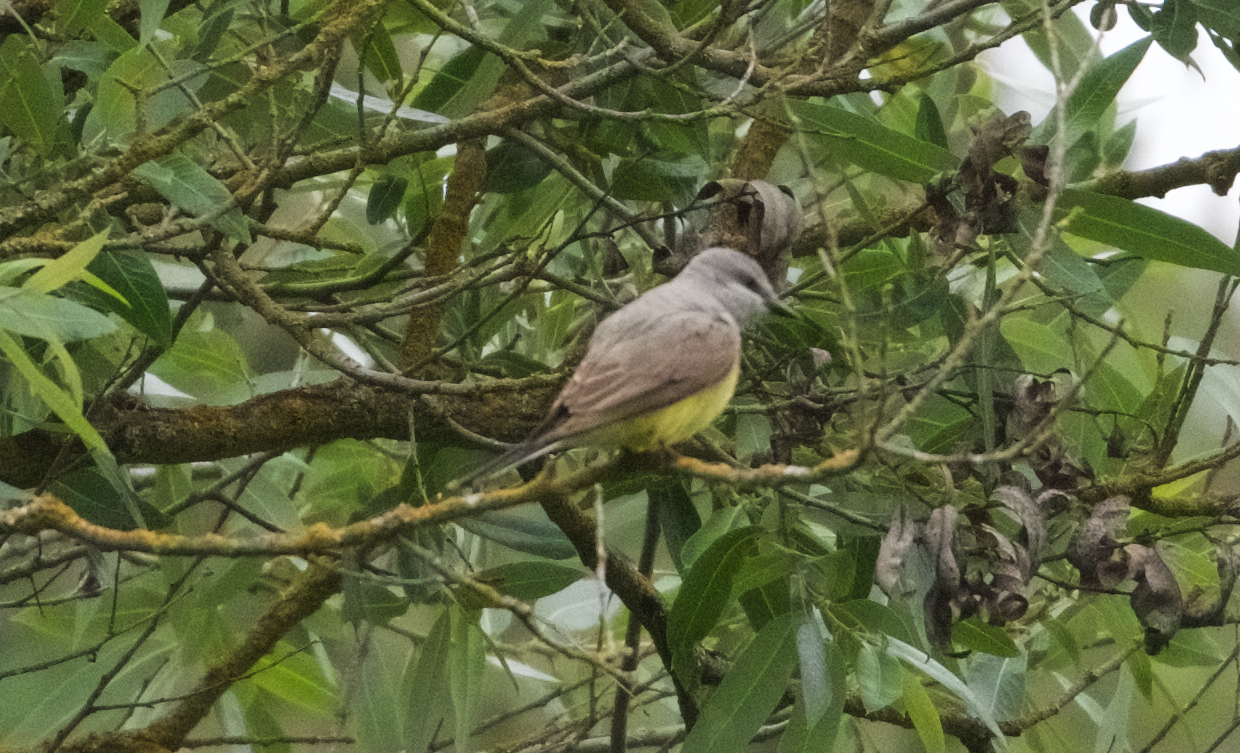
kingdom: Animalia
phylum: Chordata
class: Aves
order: Passeriformes
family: Tyrannidae
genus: Tyrannus
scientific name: Tyrannus verticalis
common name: Western kingbird
